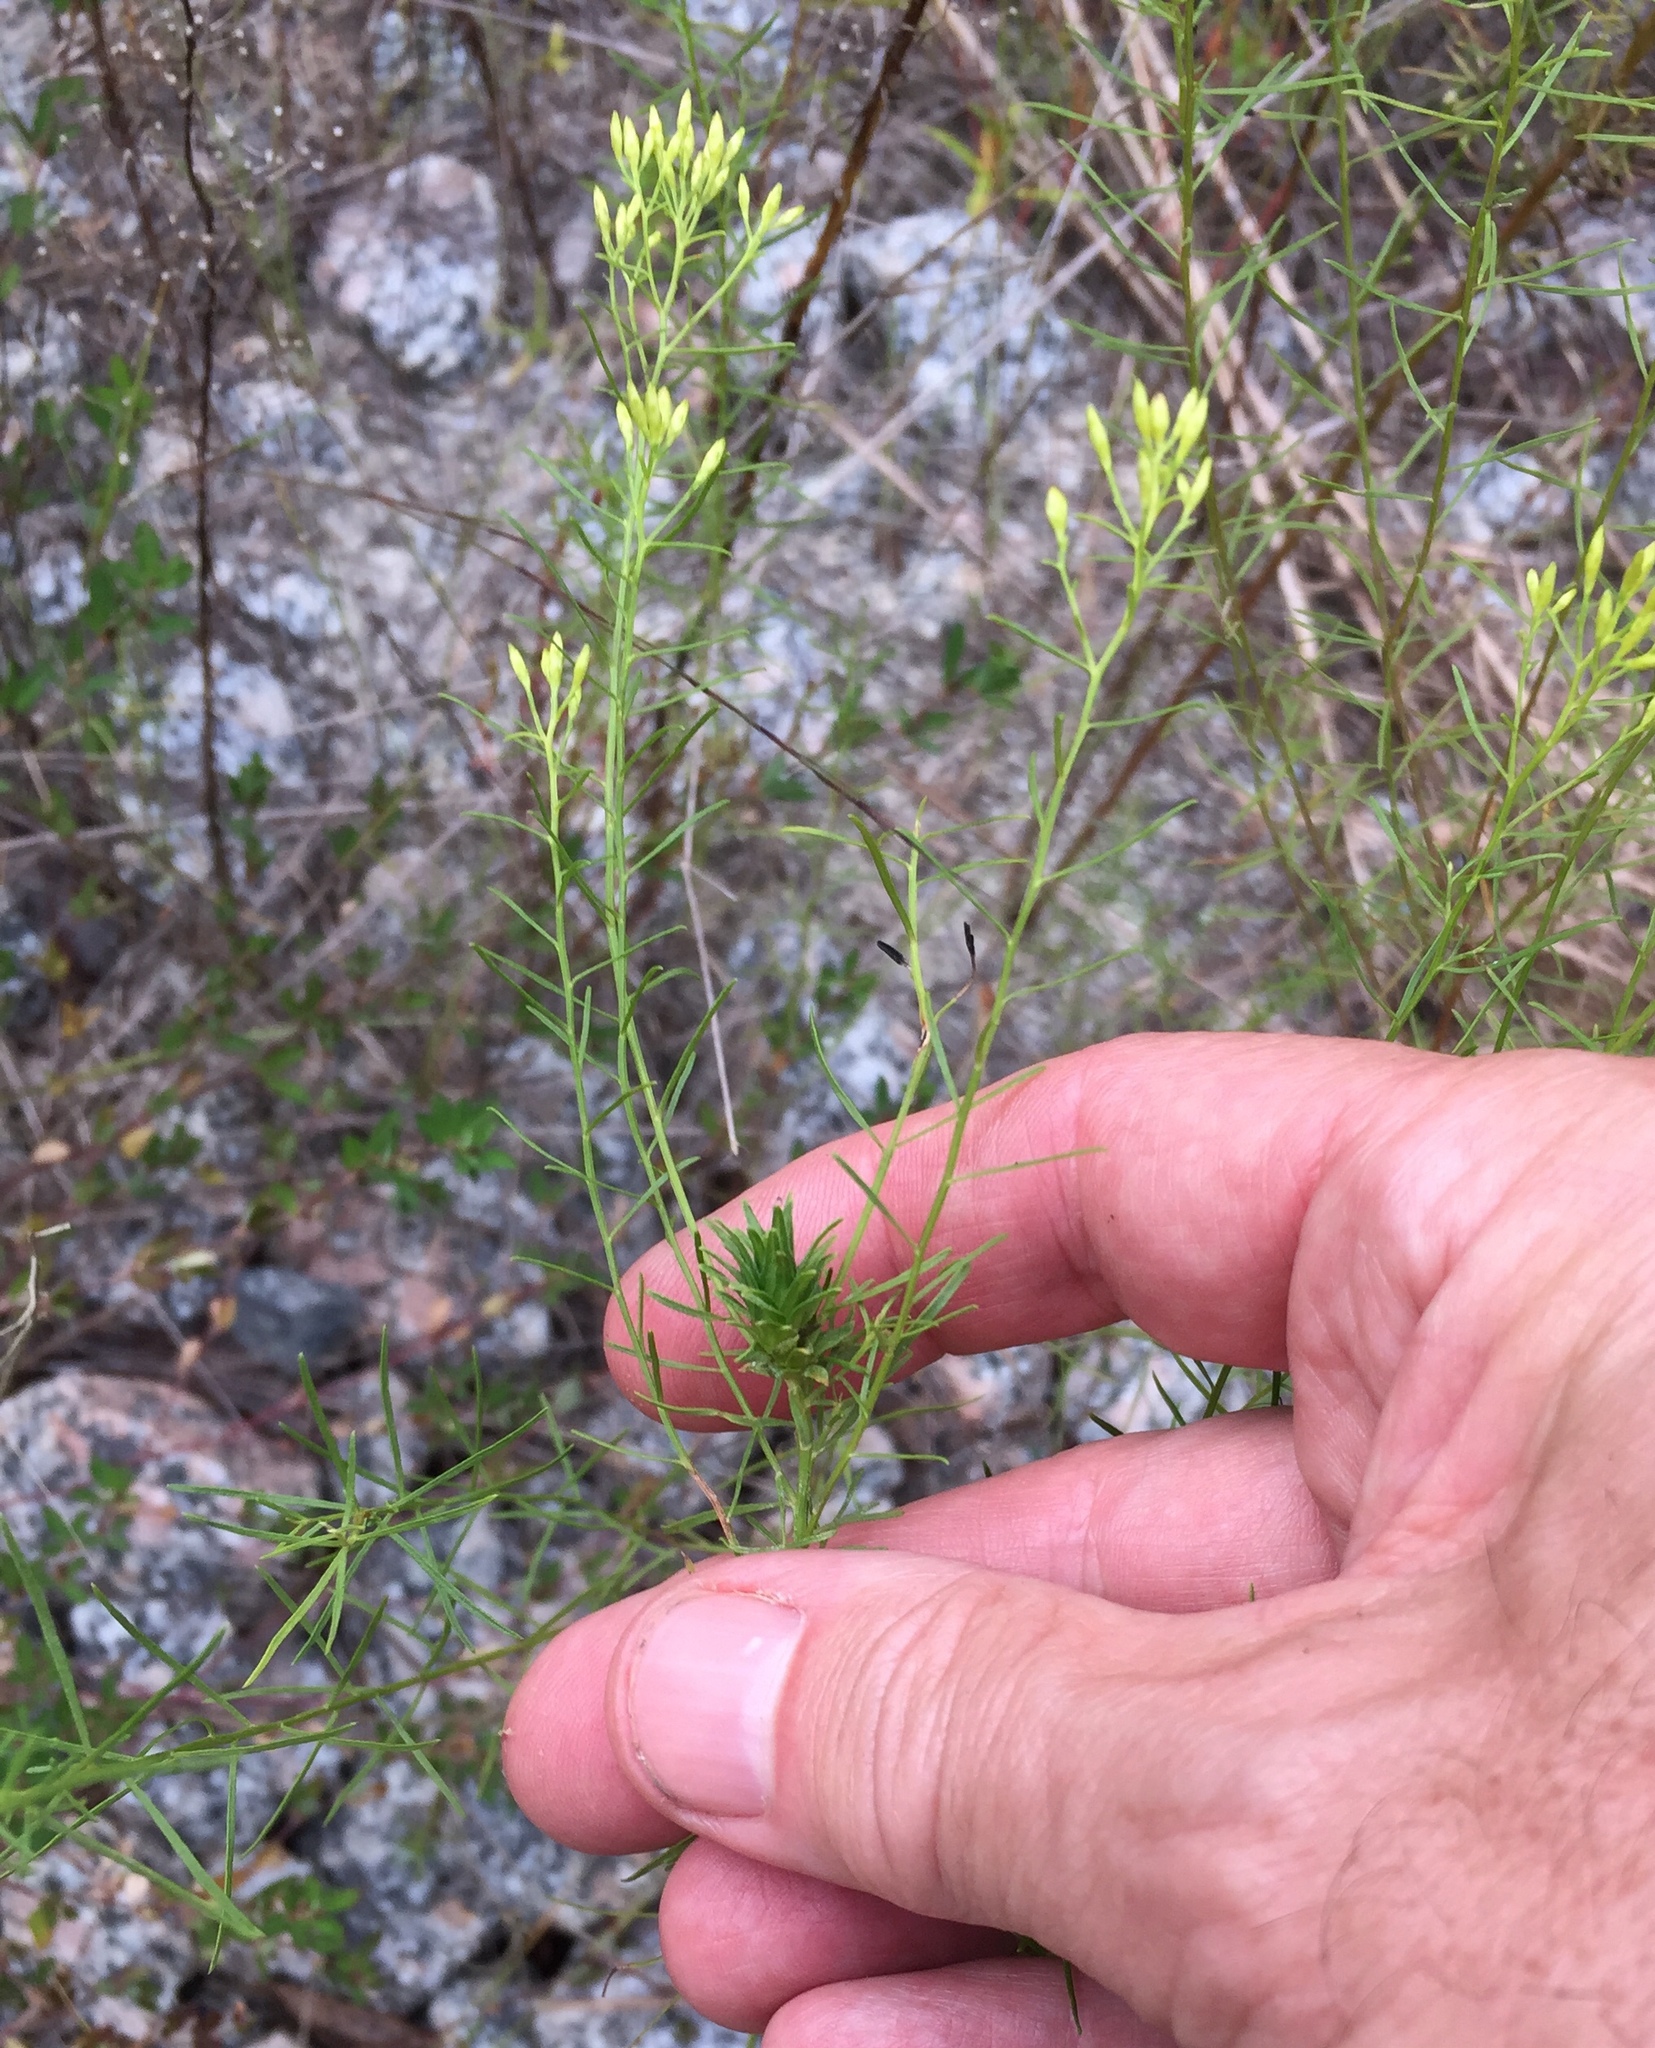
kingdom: Animalia
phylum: Arthropoda
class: Insecta
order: Diptera
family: Cecidomyiidae
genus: Asphondylia
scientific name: Asphondylia pseudorosa
